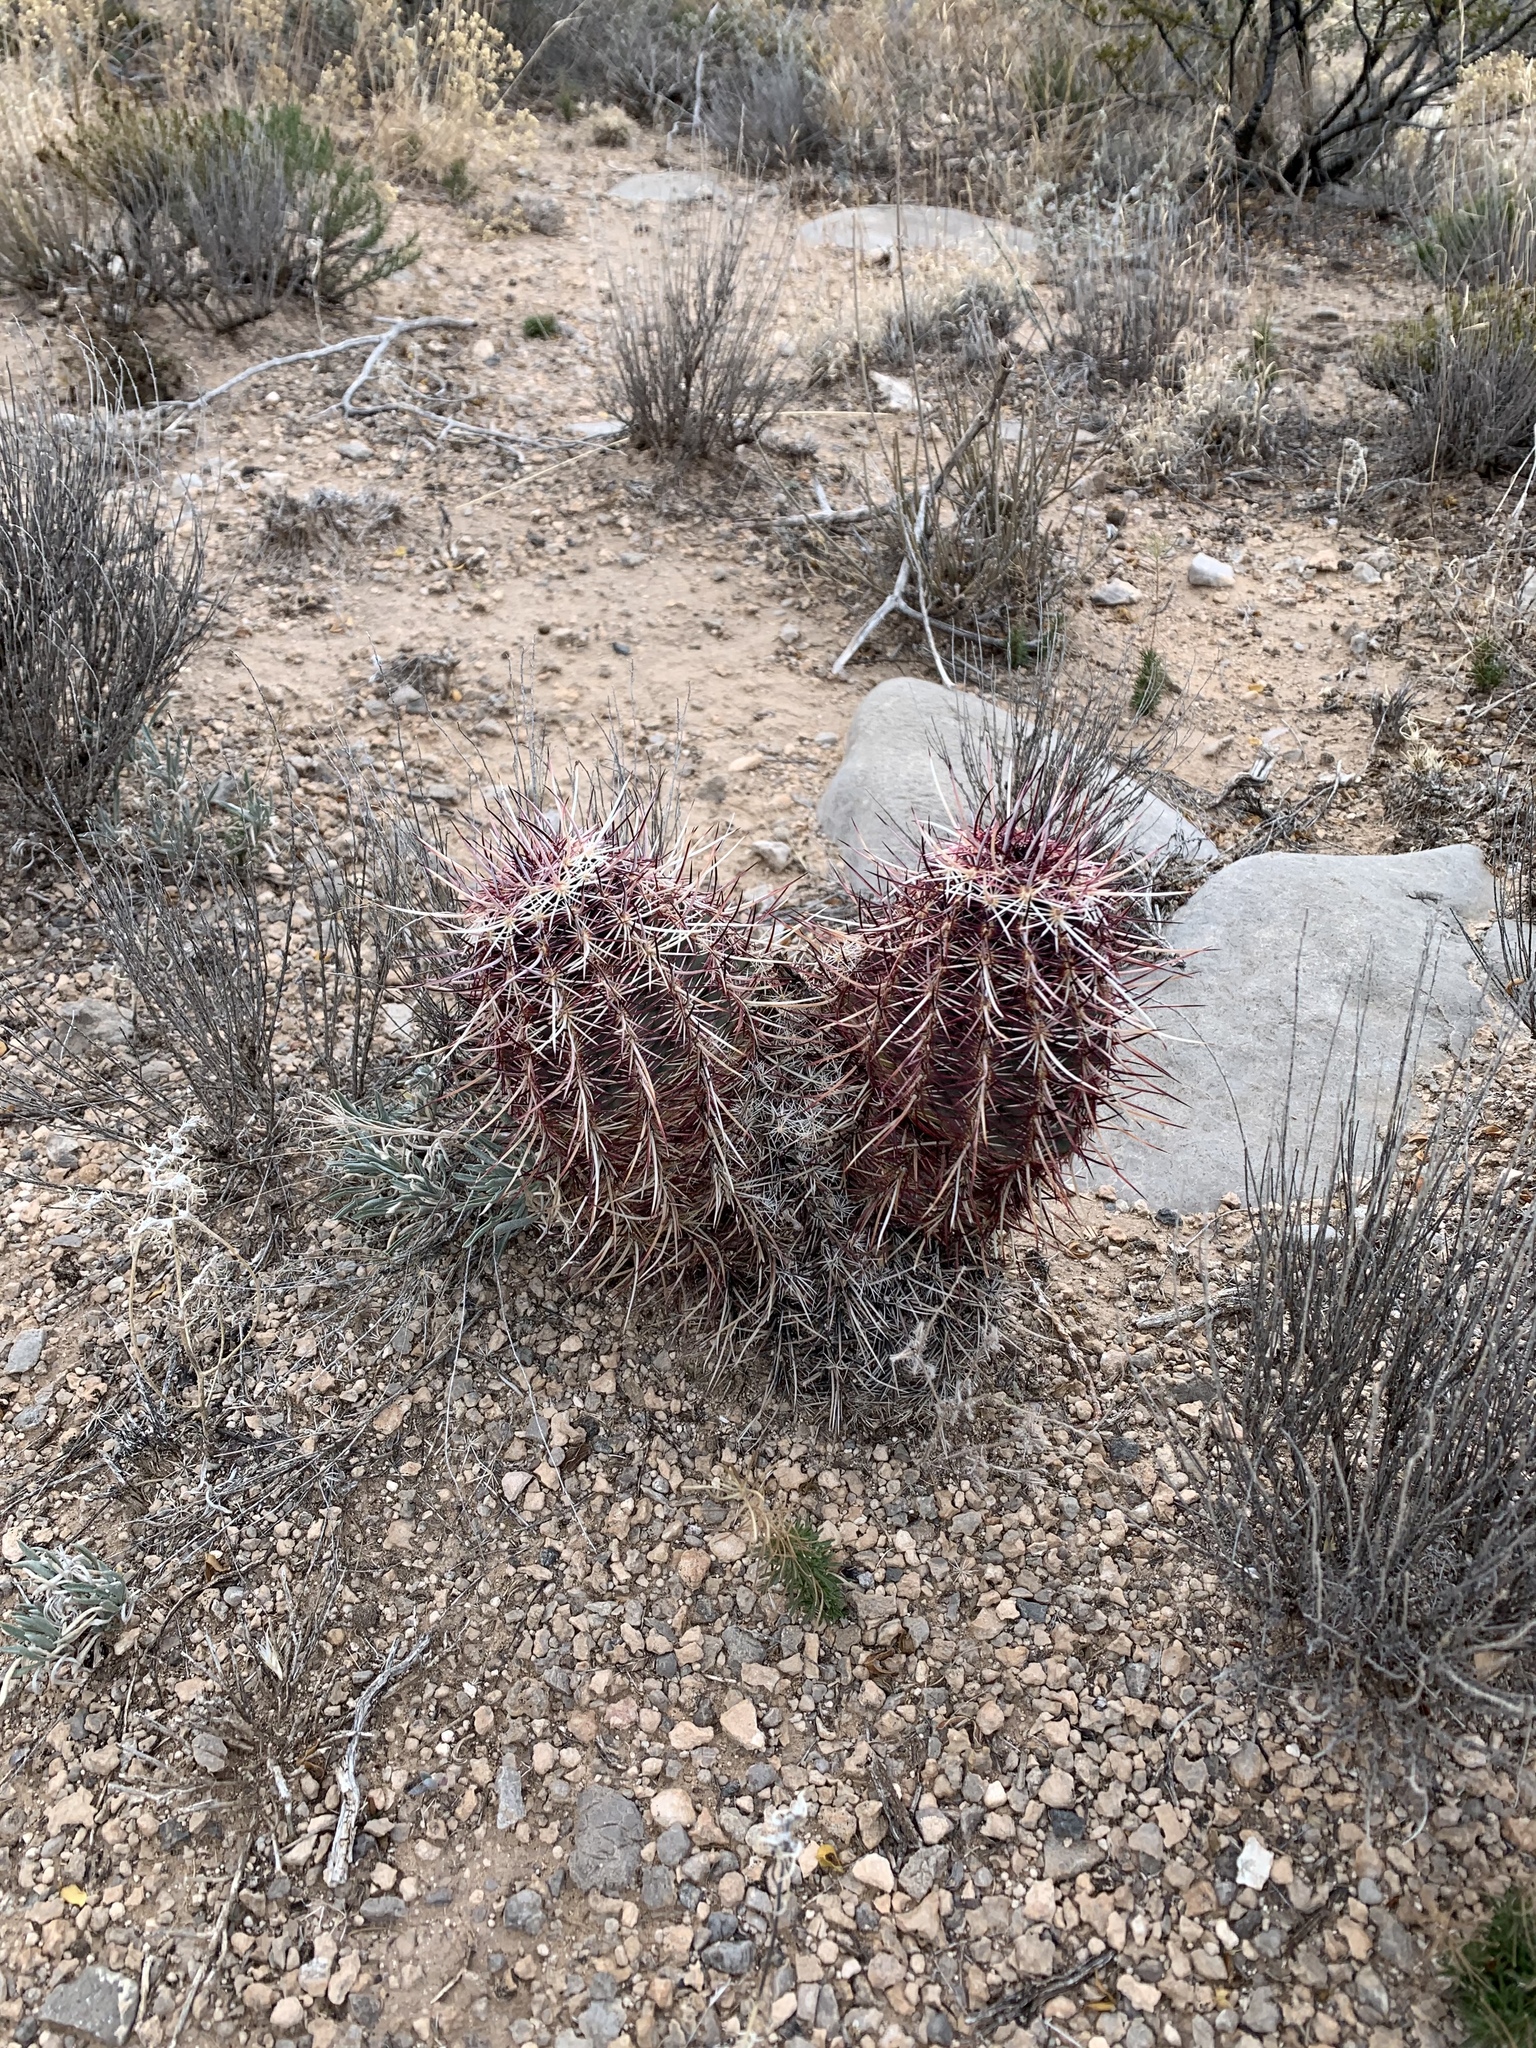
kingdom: Plantae
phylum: Tracheophyta
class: Magnoliopsida
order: Caryophyllales
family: Cactaceae
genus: Echinocereus
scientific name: Echinocereus viridiflorus
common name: Nylon hedgehog cactus
